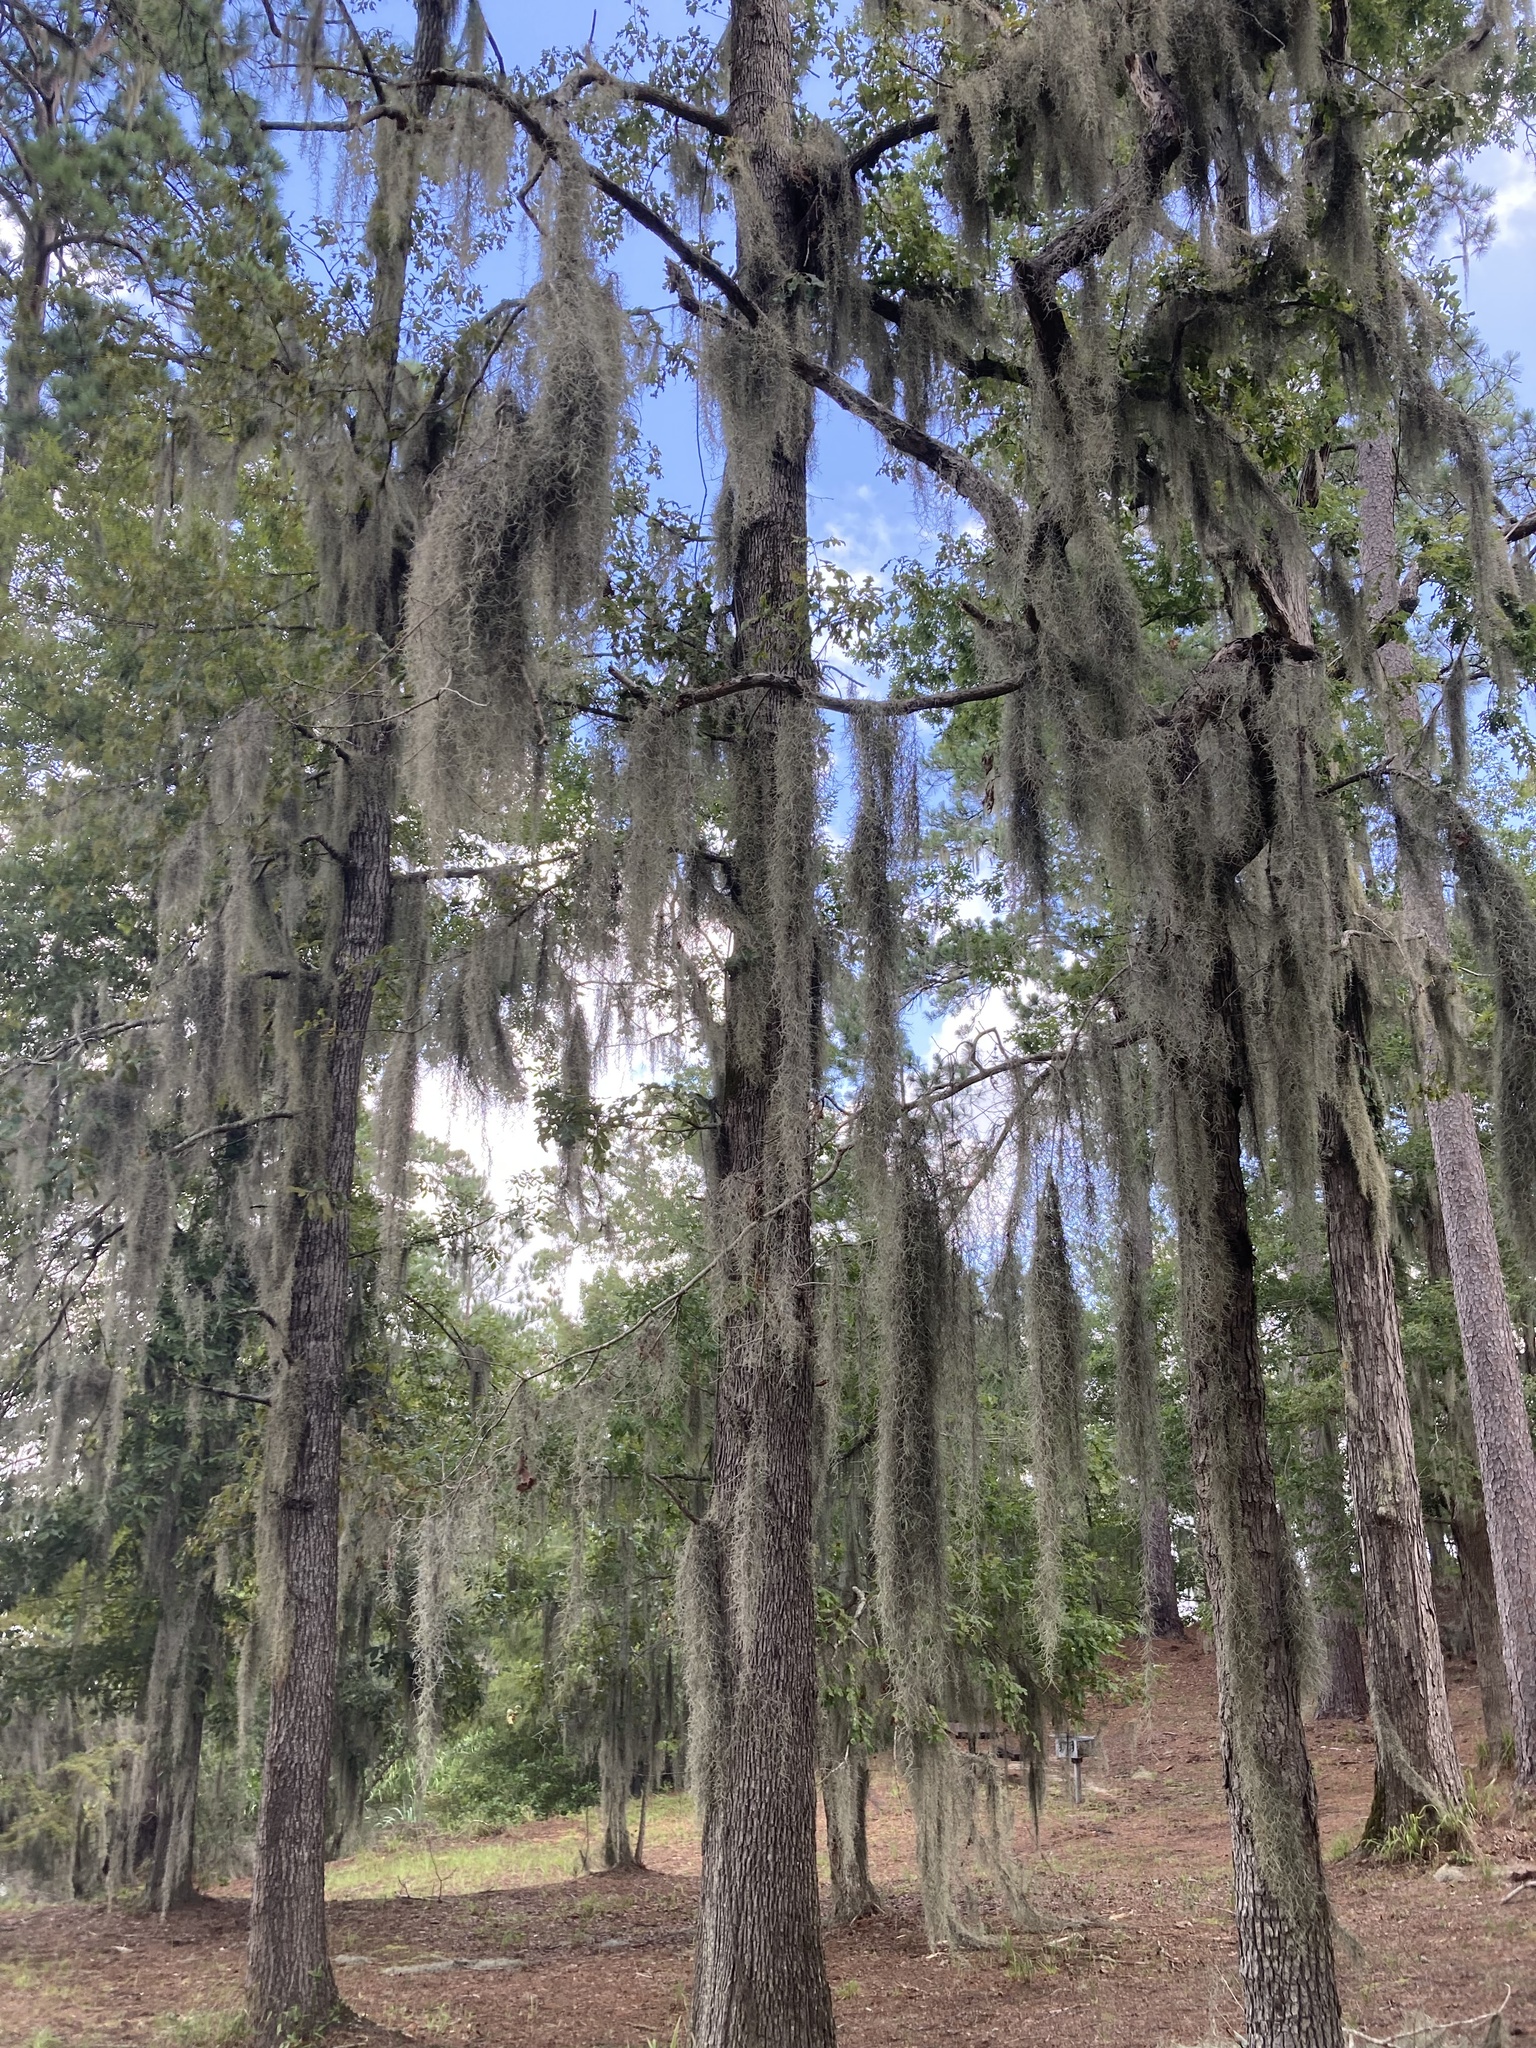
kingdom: Plantae
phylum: Tracheophyta
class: Liliopsida
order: Poales
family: Bromeliaceae
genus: Tillandsia
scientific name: Tillandsia usneoides
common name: Spanish moss
